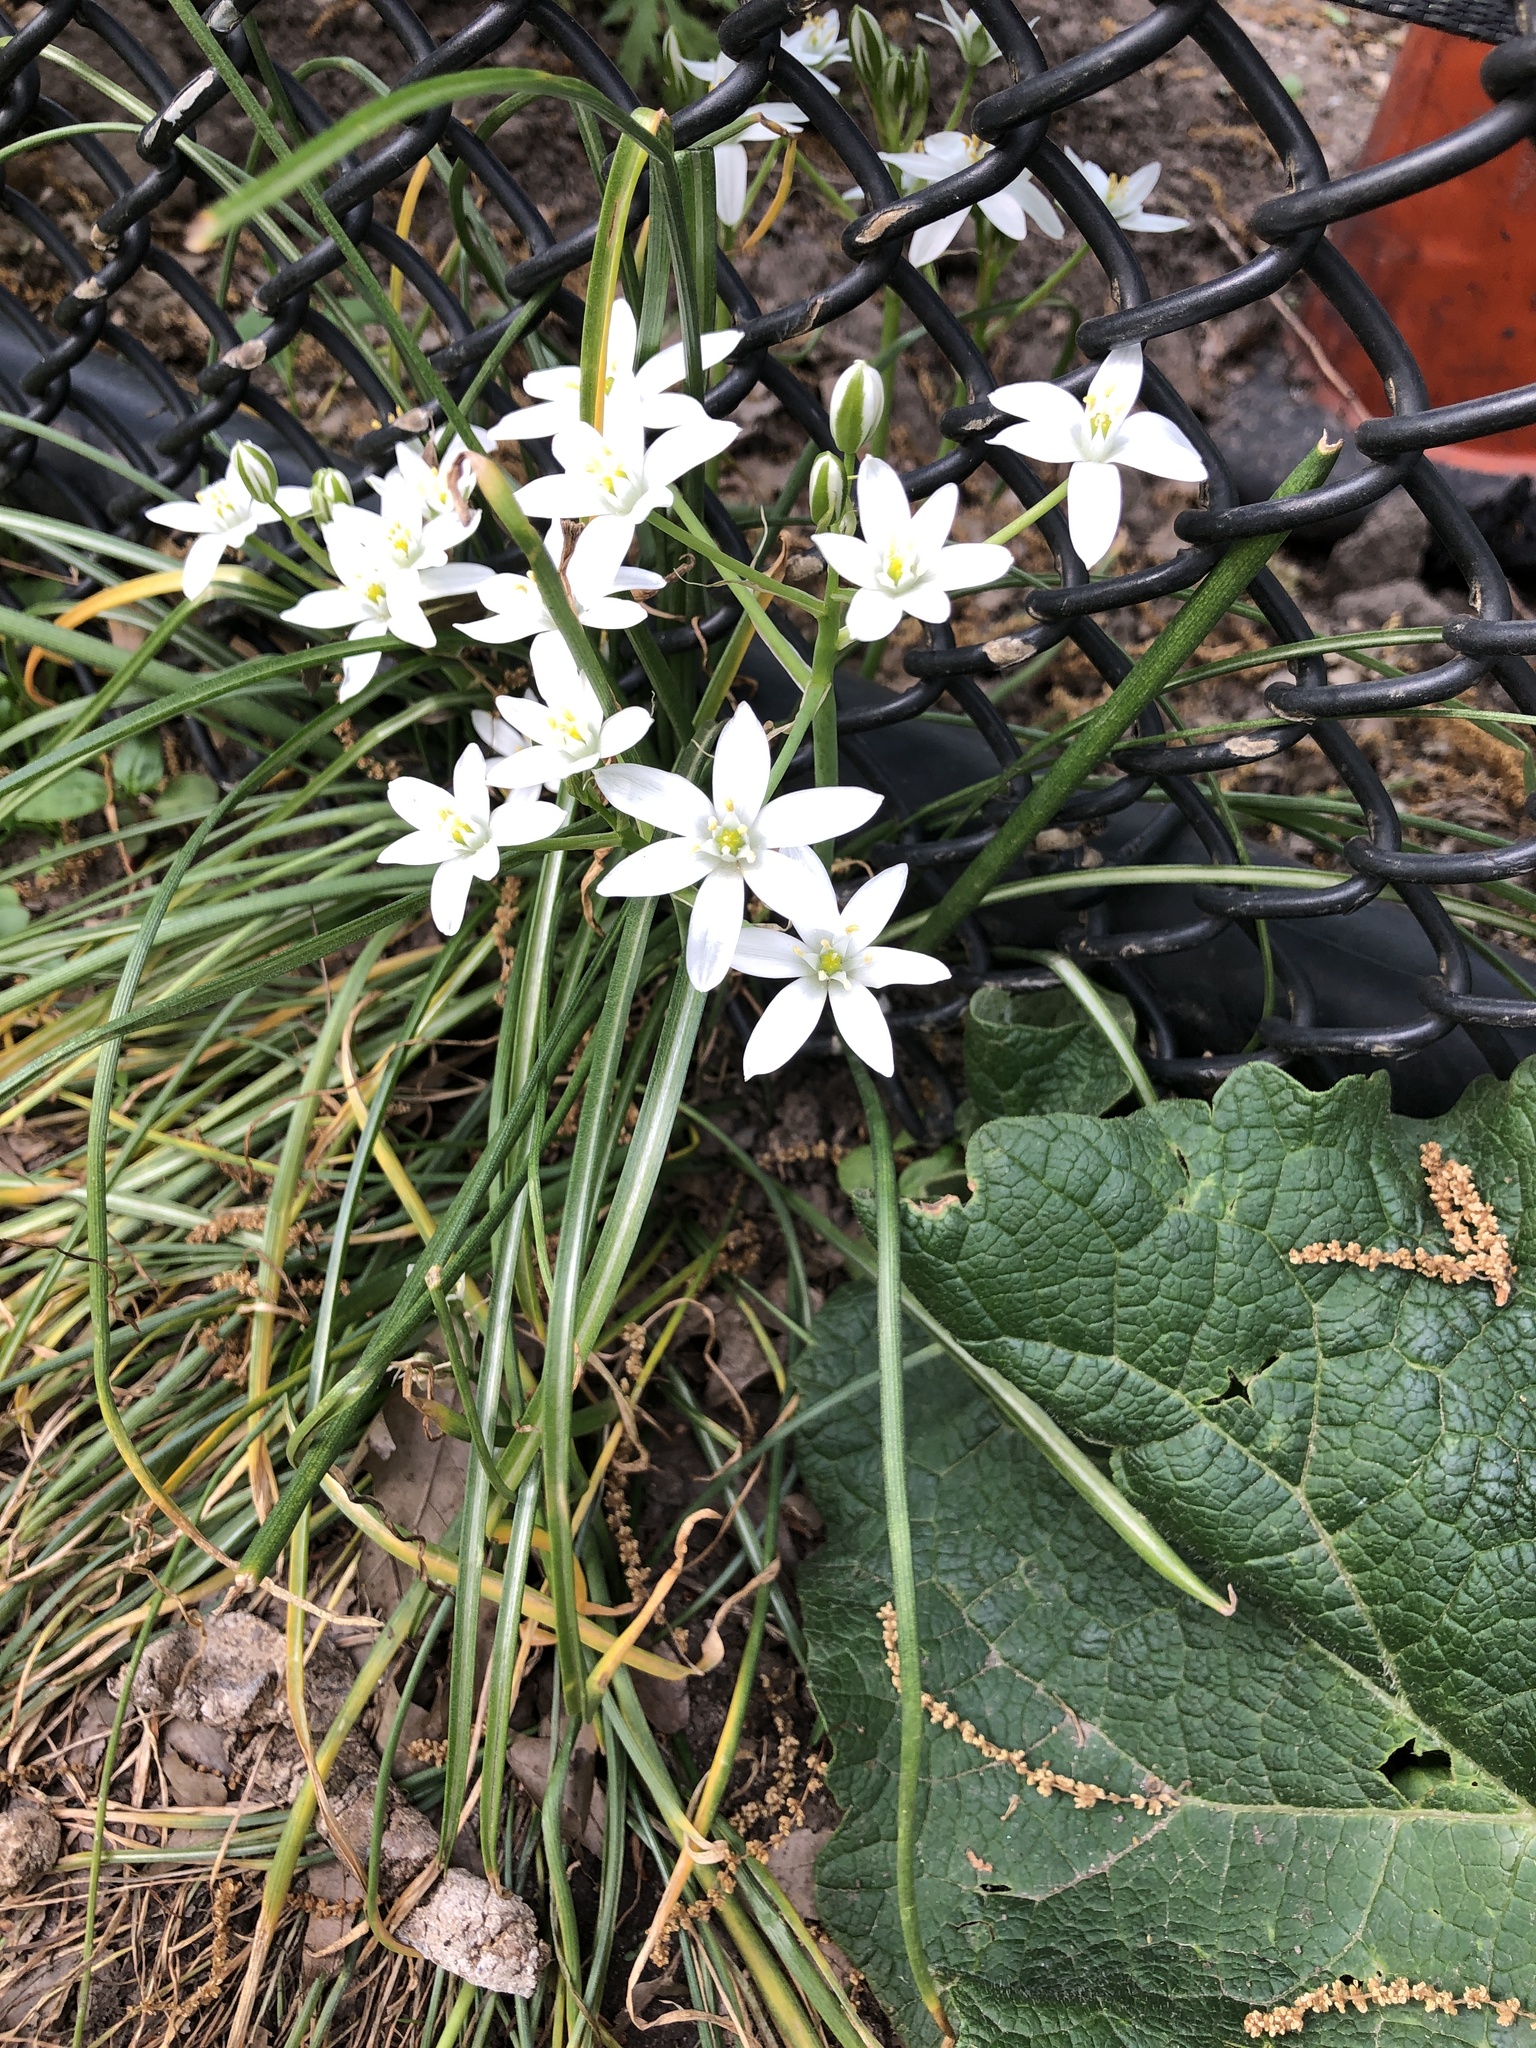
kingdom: Plantae
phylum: Tracheophyta
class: Liliopsida
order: Asparagales
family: Asparagaceae
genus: Ornithogalum
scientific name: Ornithogalum umbellatum
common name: Garden star-of-bethlehem
